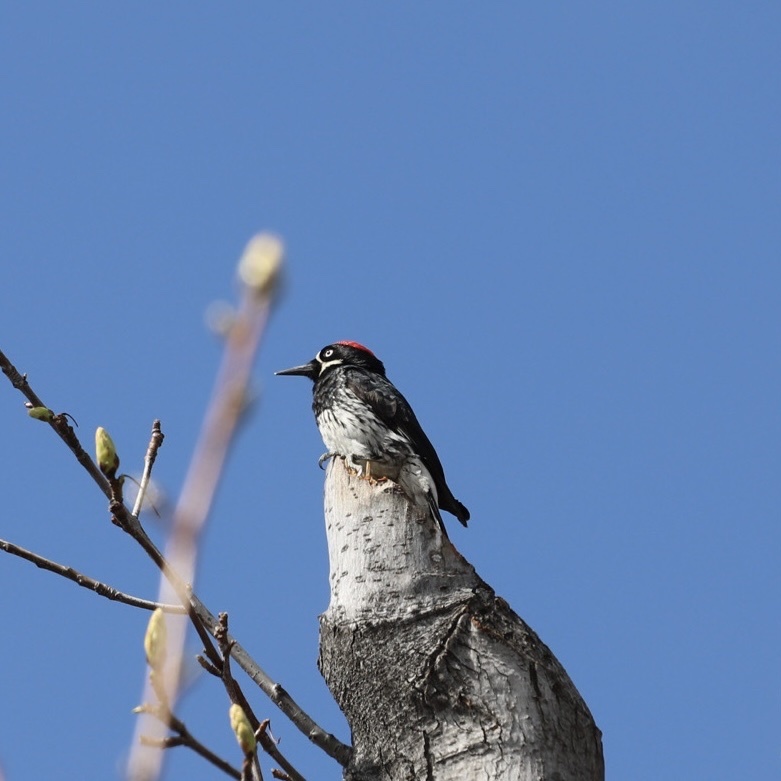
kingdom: Animalia
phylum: Chordata
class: Aves
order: Piciformes
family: Picidae
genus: Melanerpes
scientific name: Melanerpes formicivorus
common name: Acorn woodpecker
